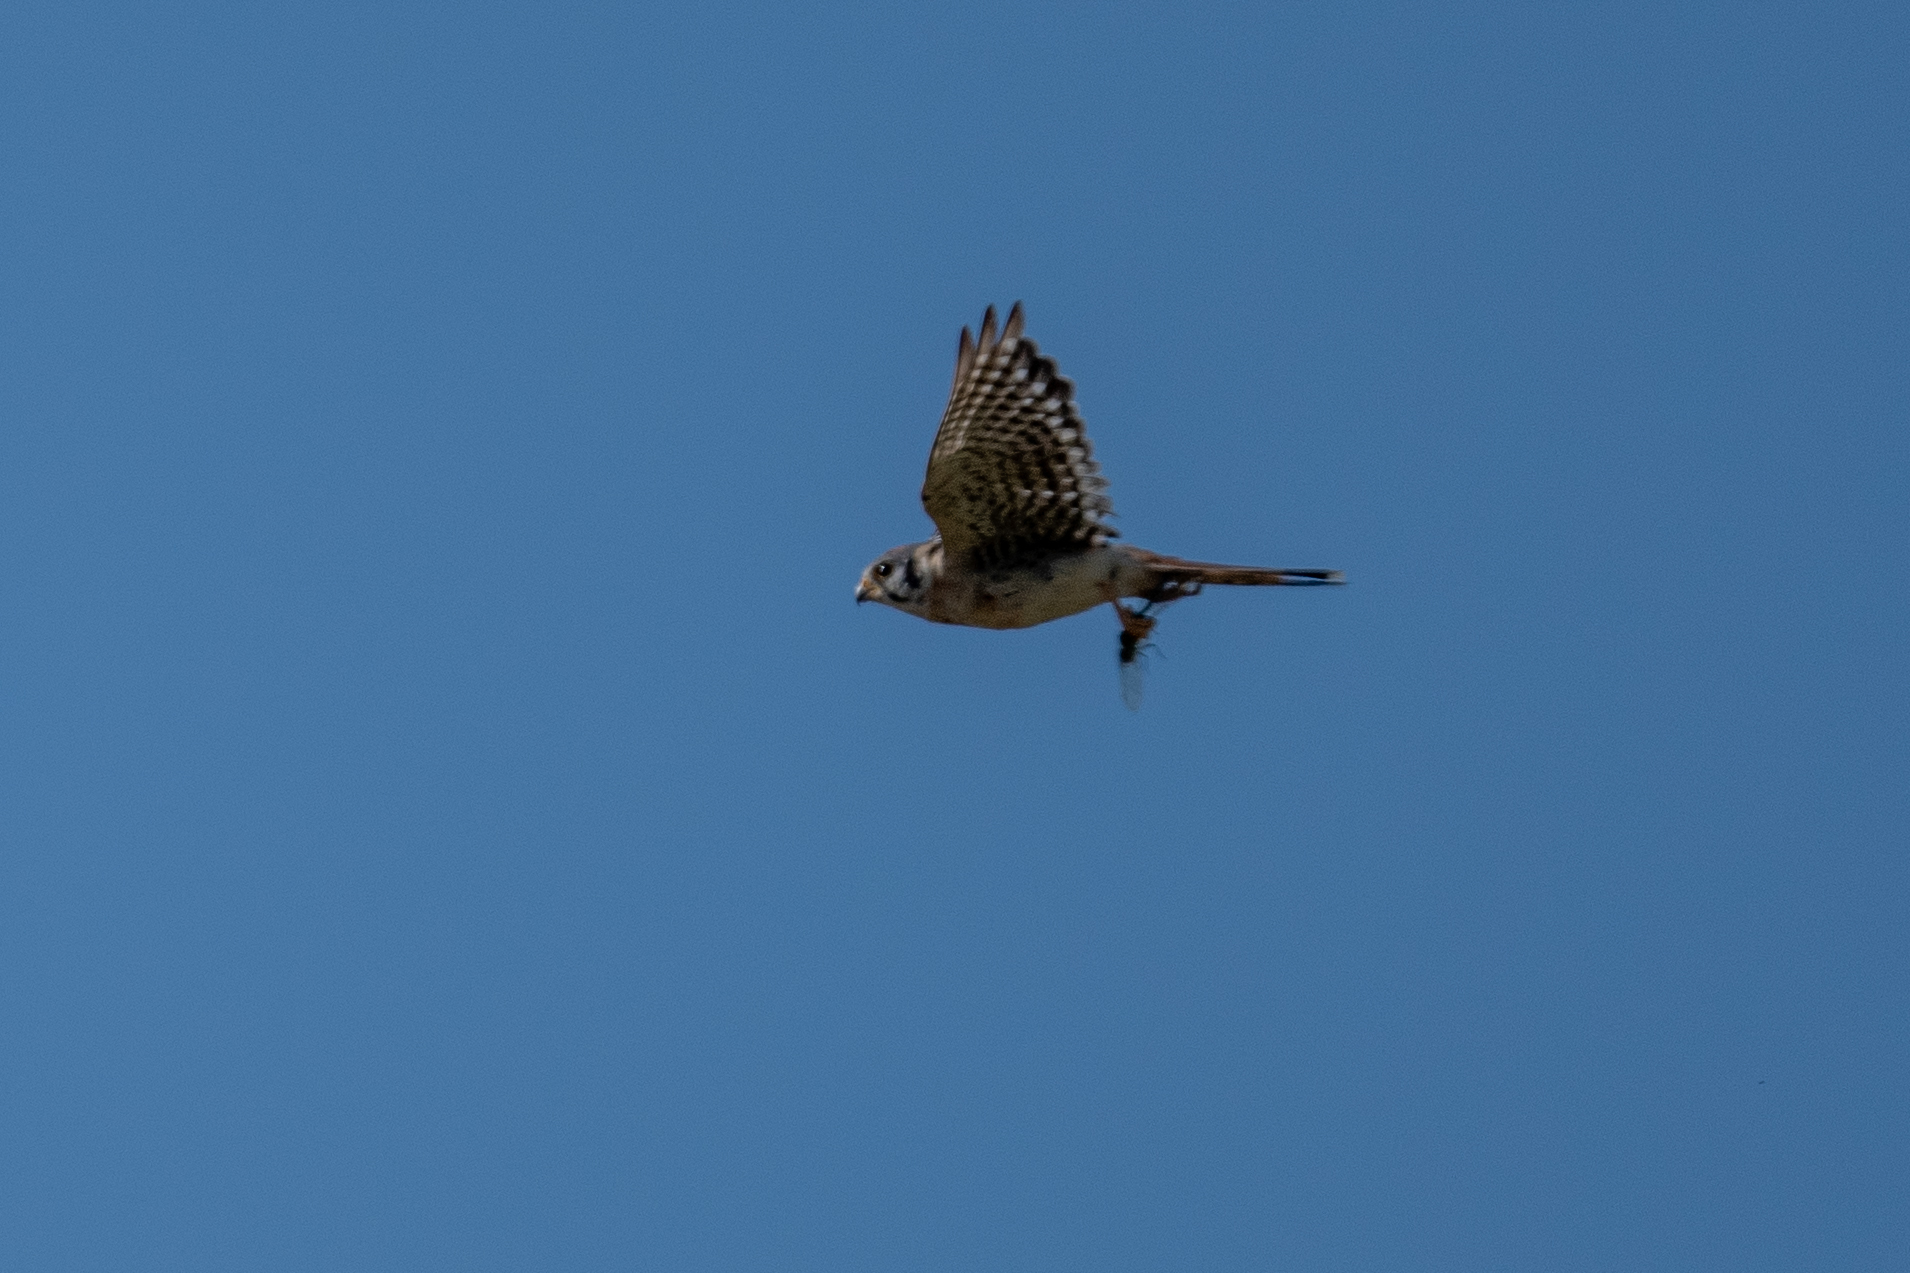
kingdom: Animalia
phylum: Chordata
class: Aves
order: Falconiformes
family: Falconidae
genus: Falco
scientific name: Falco sparverius
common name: American kestrel
